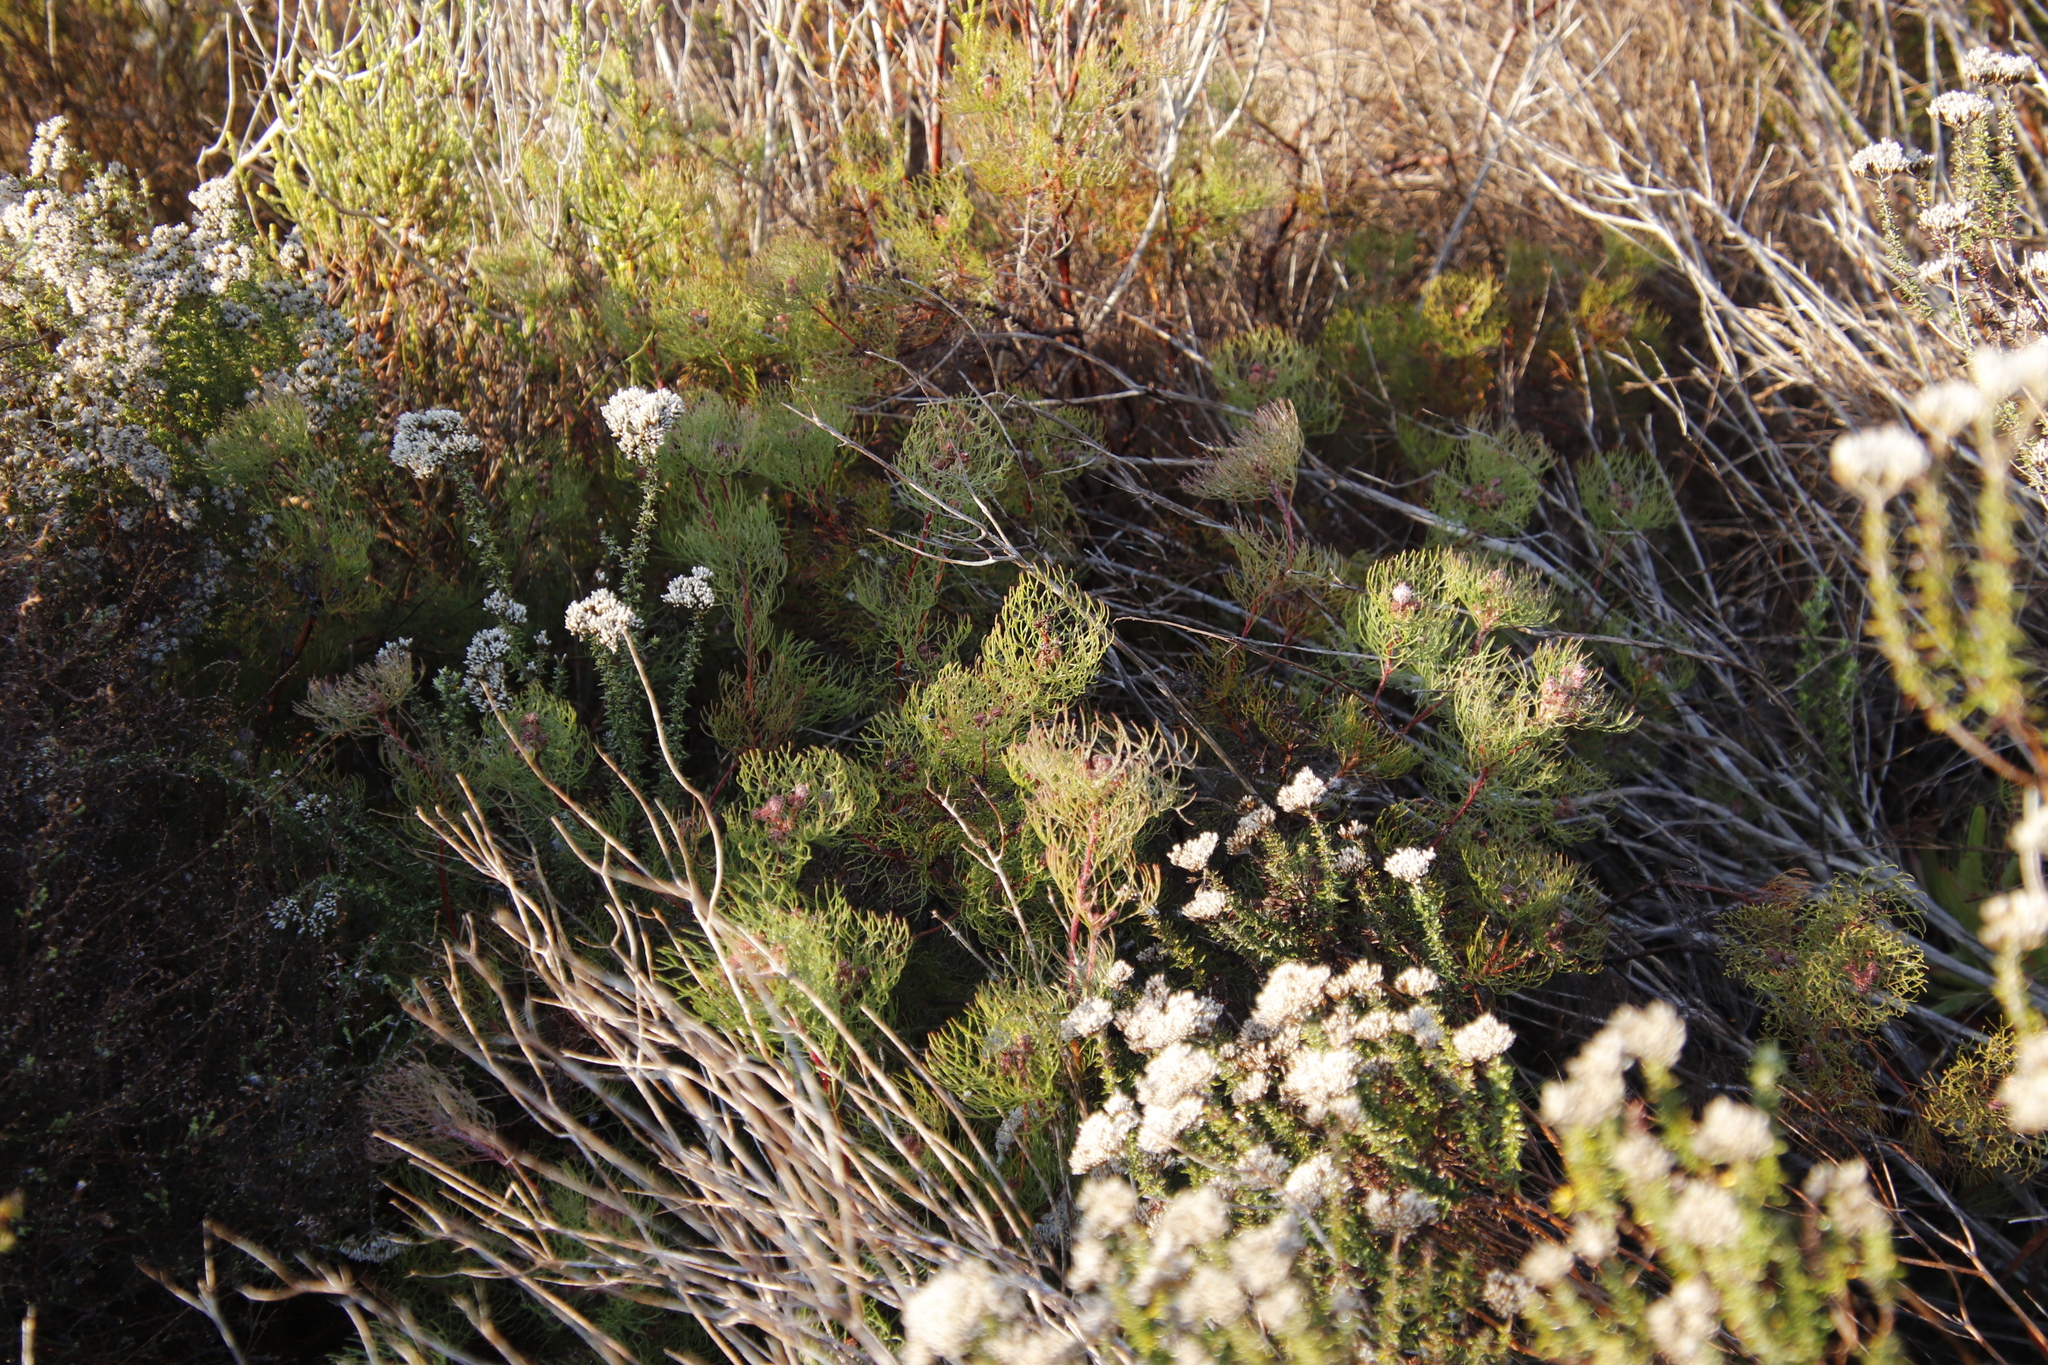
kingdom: Plantae
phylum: Tracheophyta
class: Magnoliopsida
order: Proteales
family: Proteaceae
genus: Serruria
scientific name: Serruria fasciflora
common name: Common pin spiderhead
